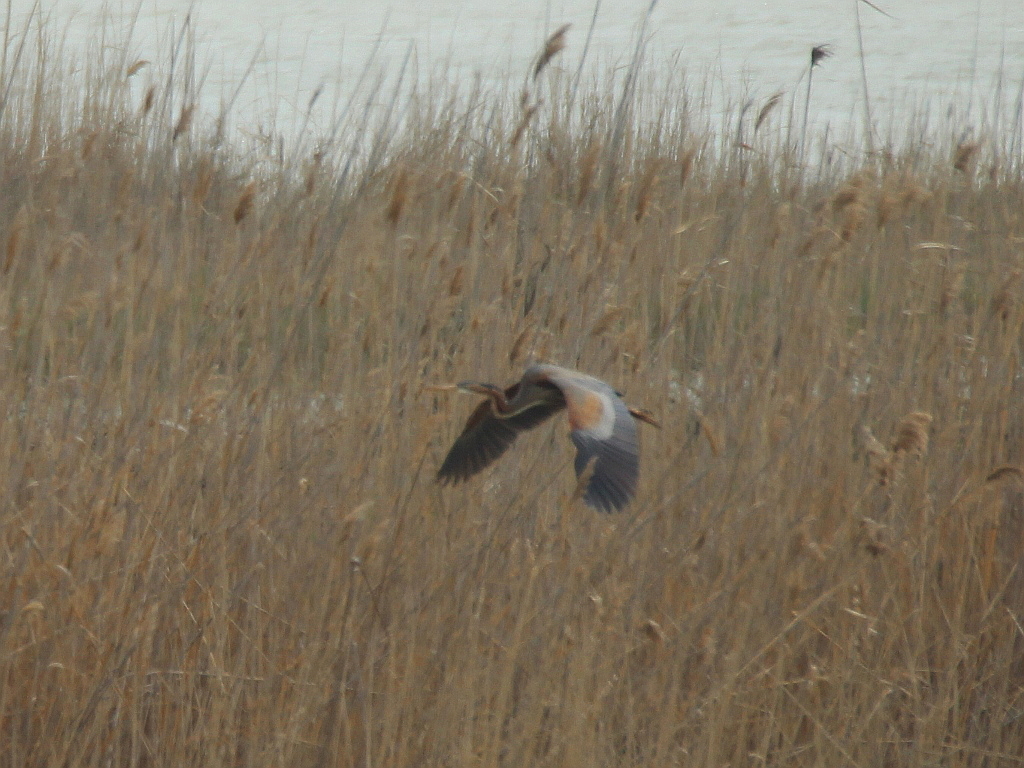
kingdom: Animalia
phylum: Chordata
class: Aves
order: Pelecaniformes
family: Ardeidae
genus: Ardea
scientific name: Ardea purpurea
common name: Purple heron
